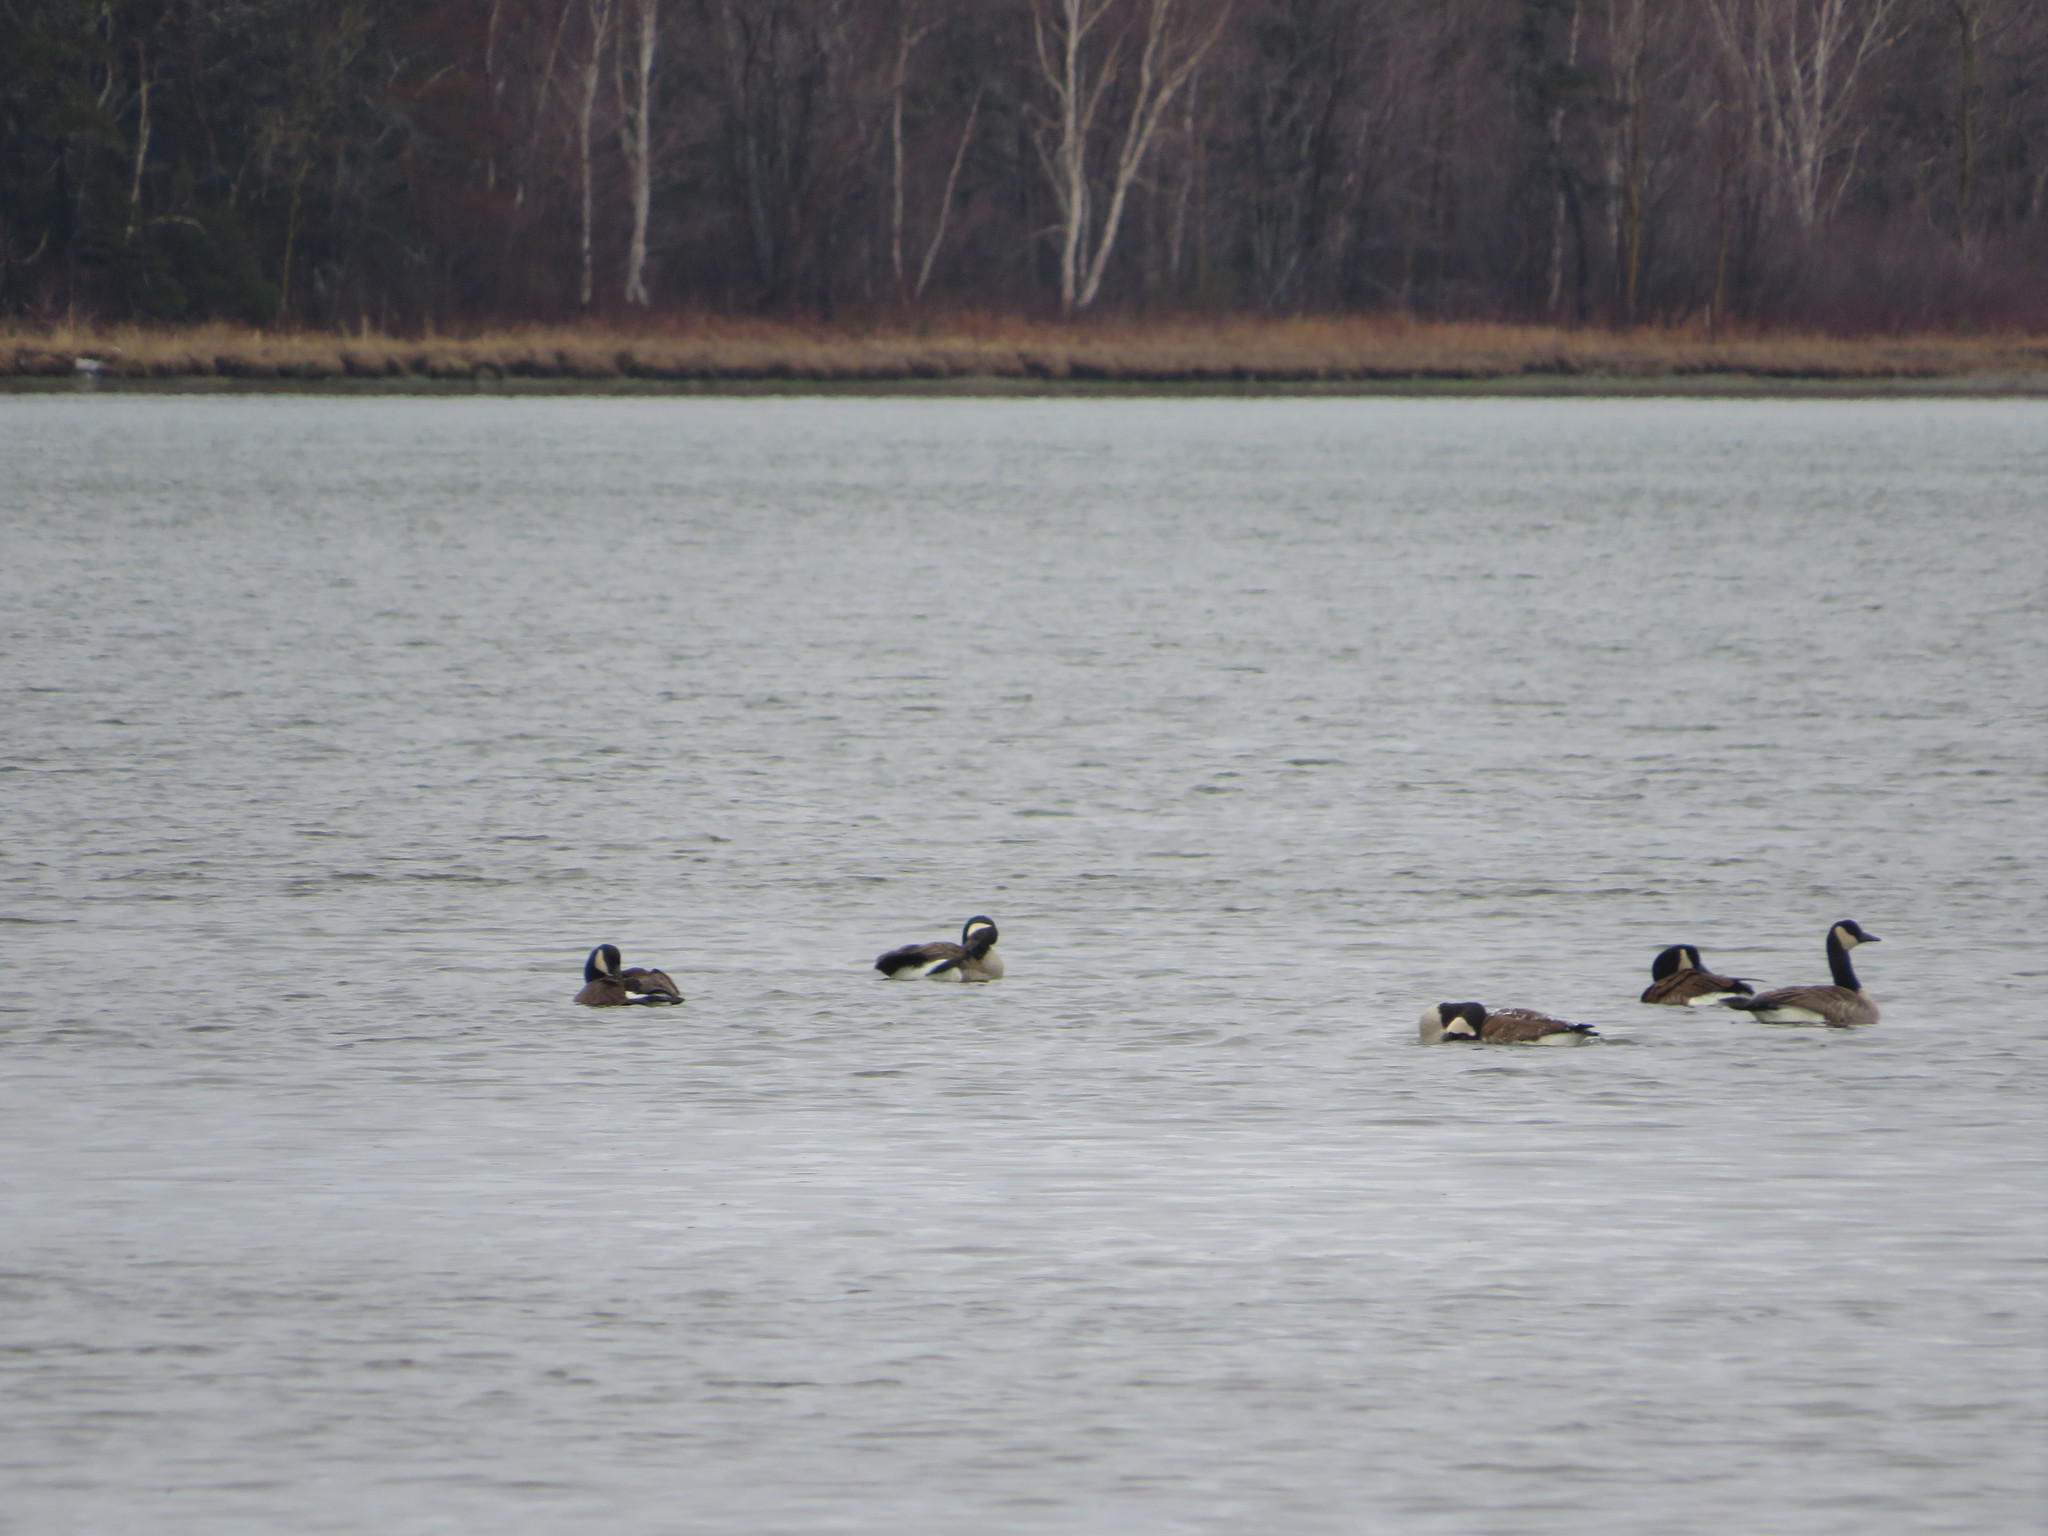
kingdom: Animalia
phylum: Chordata
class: Aves
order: Anseriformes
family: Anatidae
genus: Branta
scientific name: Branta canadensis
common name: Canada goose
